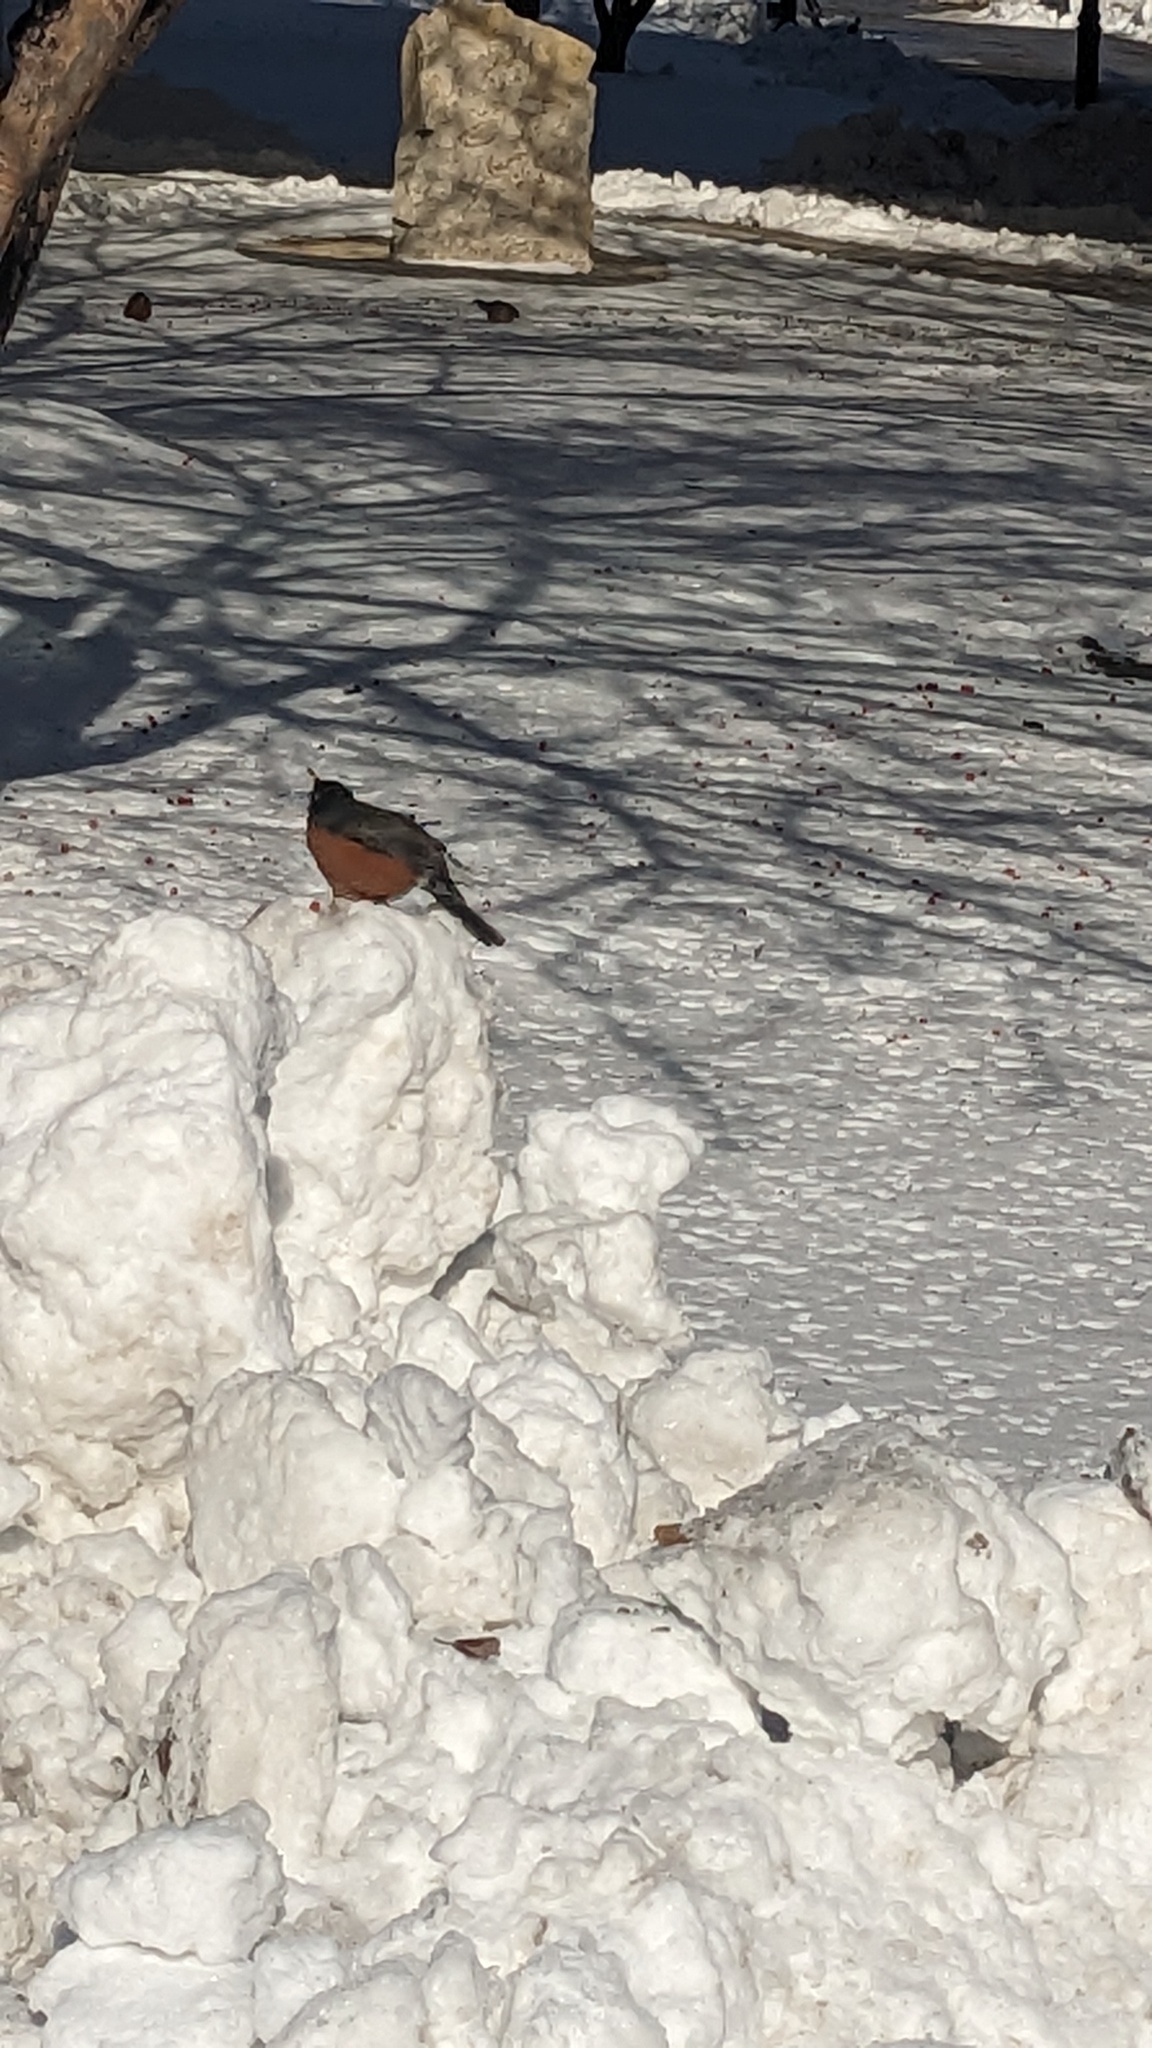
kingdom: Animalia
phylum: Chordata
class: Aves
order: Passeriformes
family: Turdidae
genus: Turdus
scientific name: Turdus migratorius
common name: American robin
